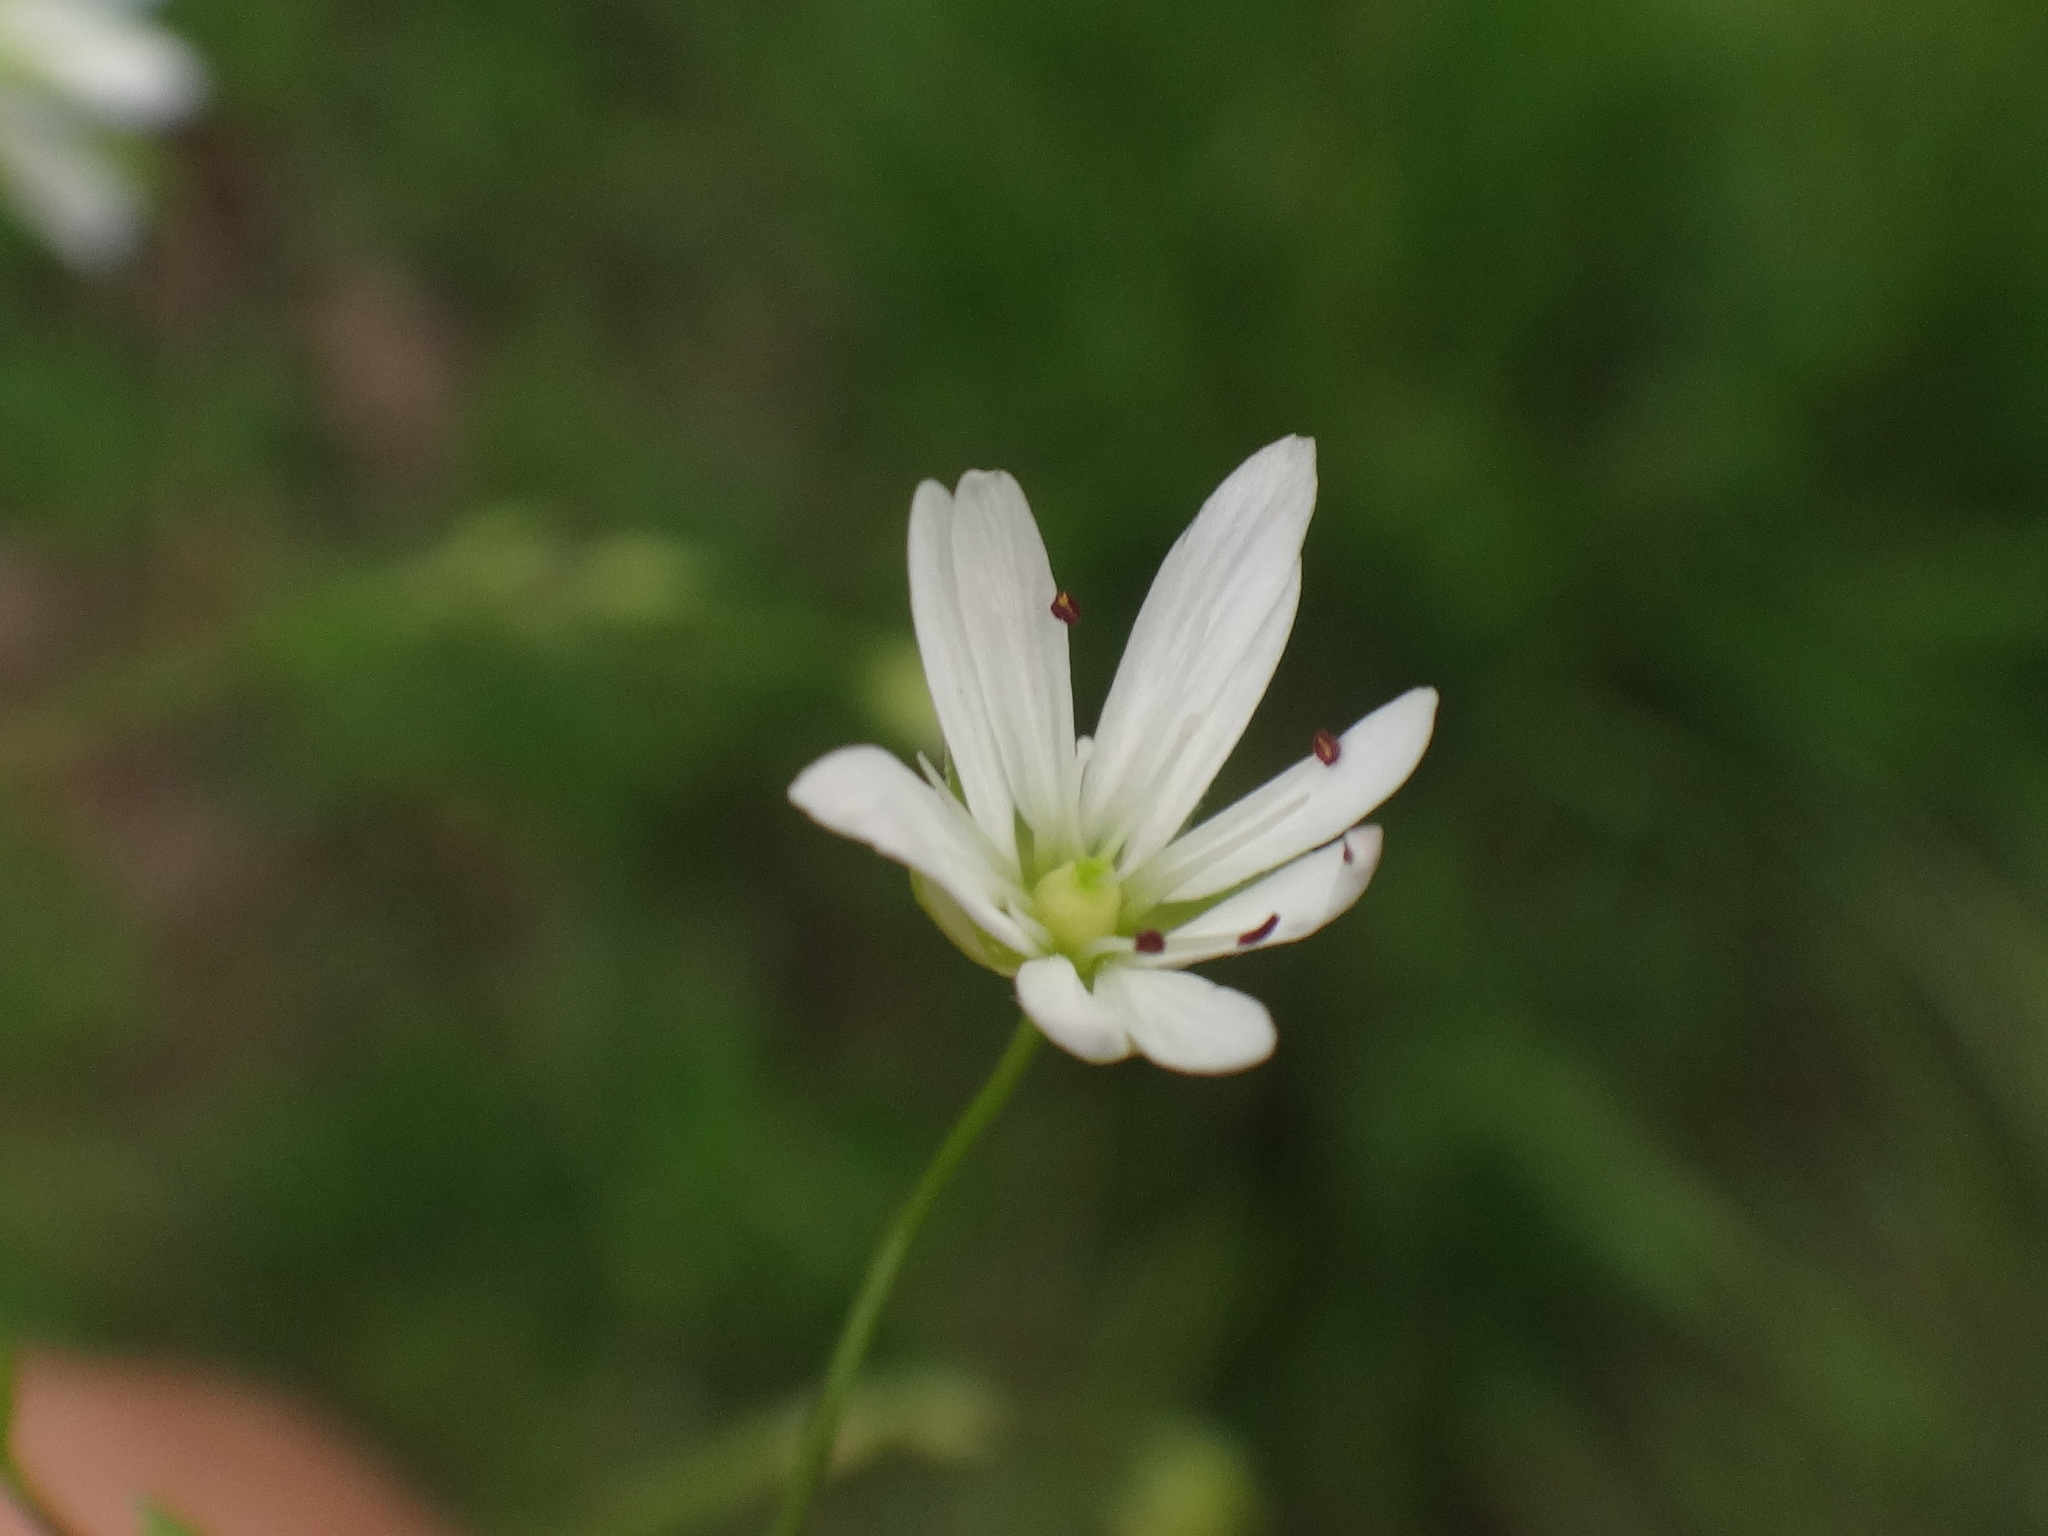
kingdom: Plantae
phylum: Tracheophyta
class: Magnoliopsida
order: Caryophyllales
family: Caryophyllaceae
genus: Stellaria
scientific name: Stellaria graminea
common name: Grass-like starwort
